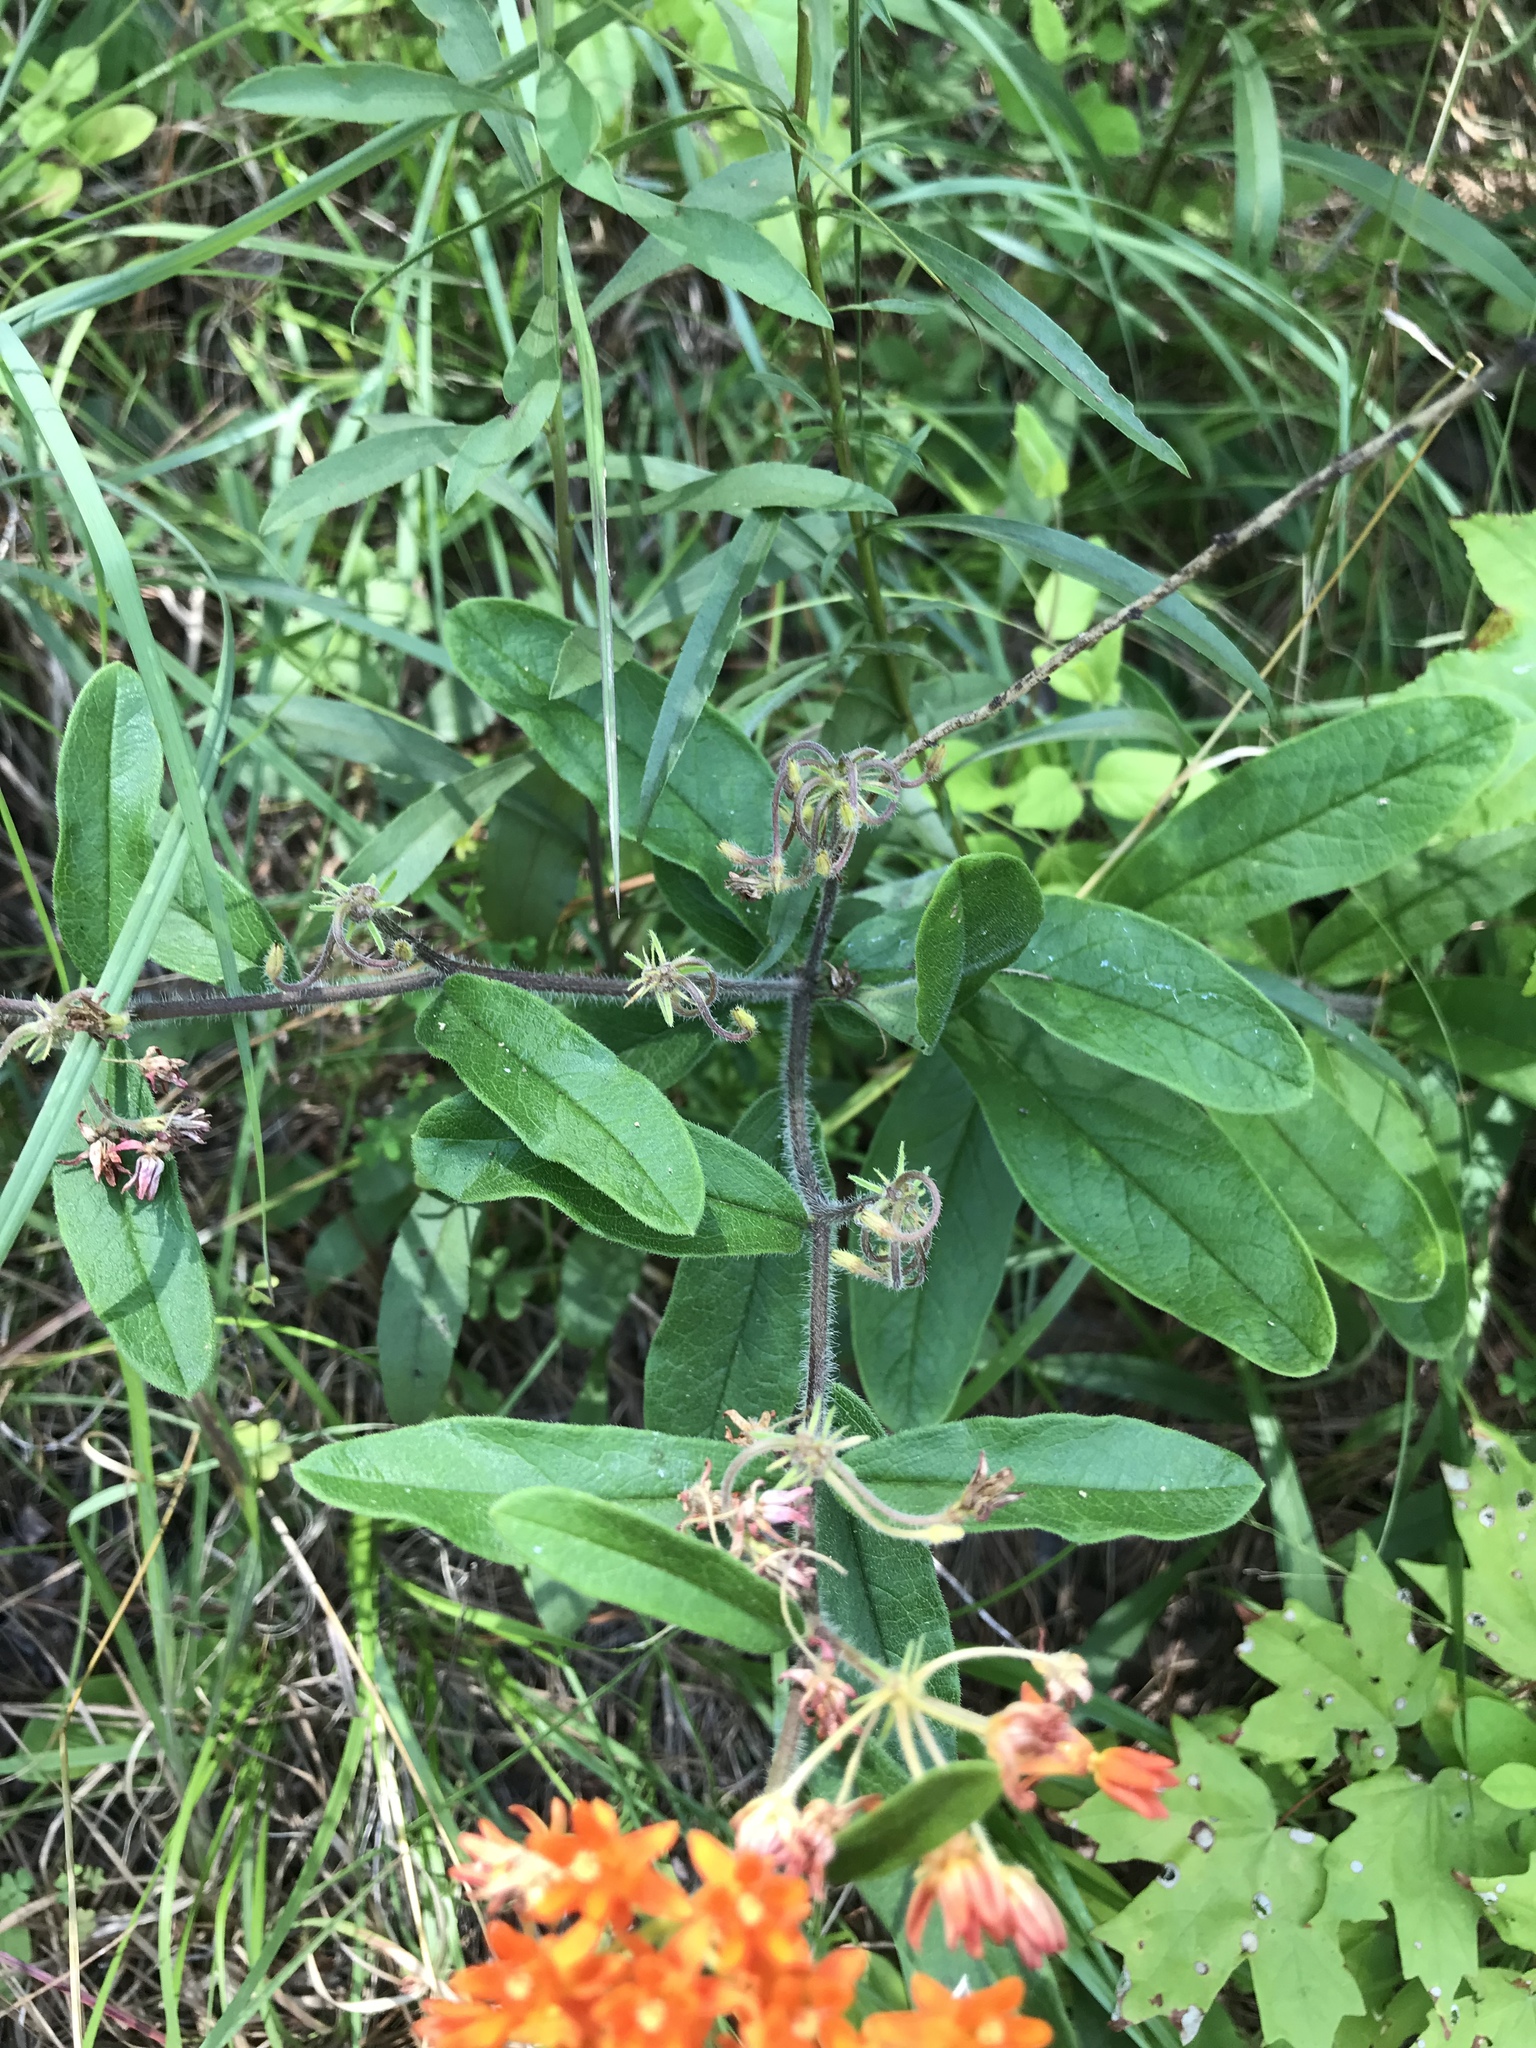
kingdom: Plantae
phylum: Tracheophyta
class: Magnoliopsida
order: Gentianales
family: Apocynaceae
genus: Asclepias
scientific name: Asclepias tuberosa
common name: Butterfly milkweed
